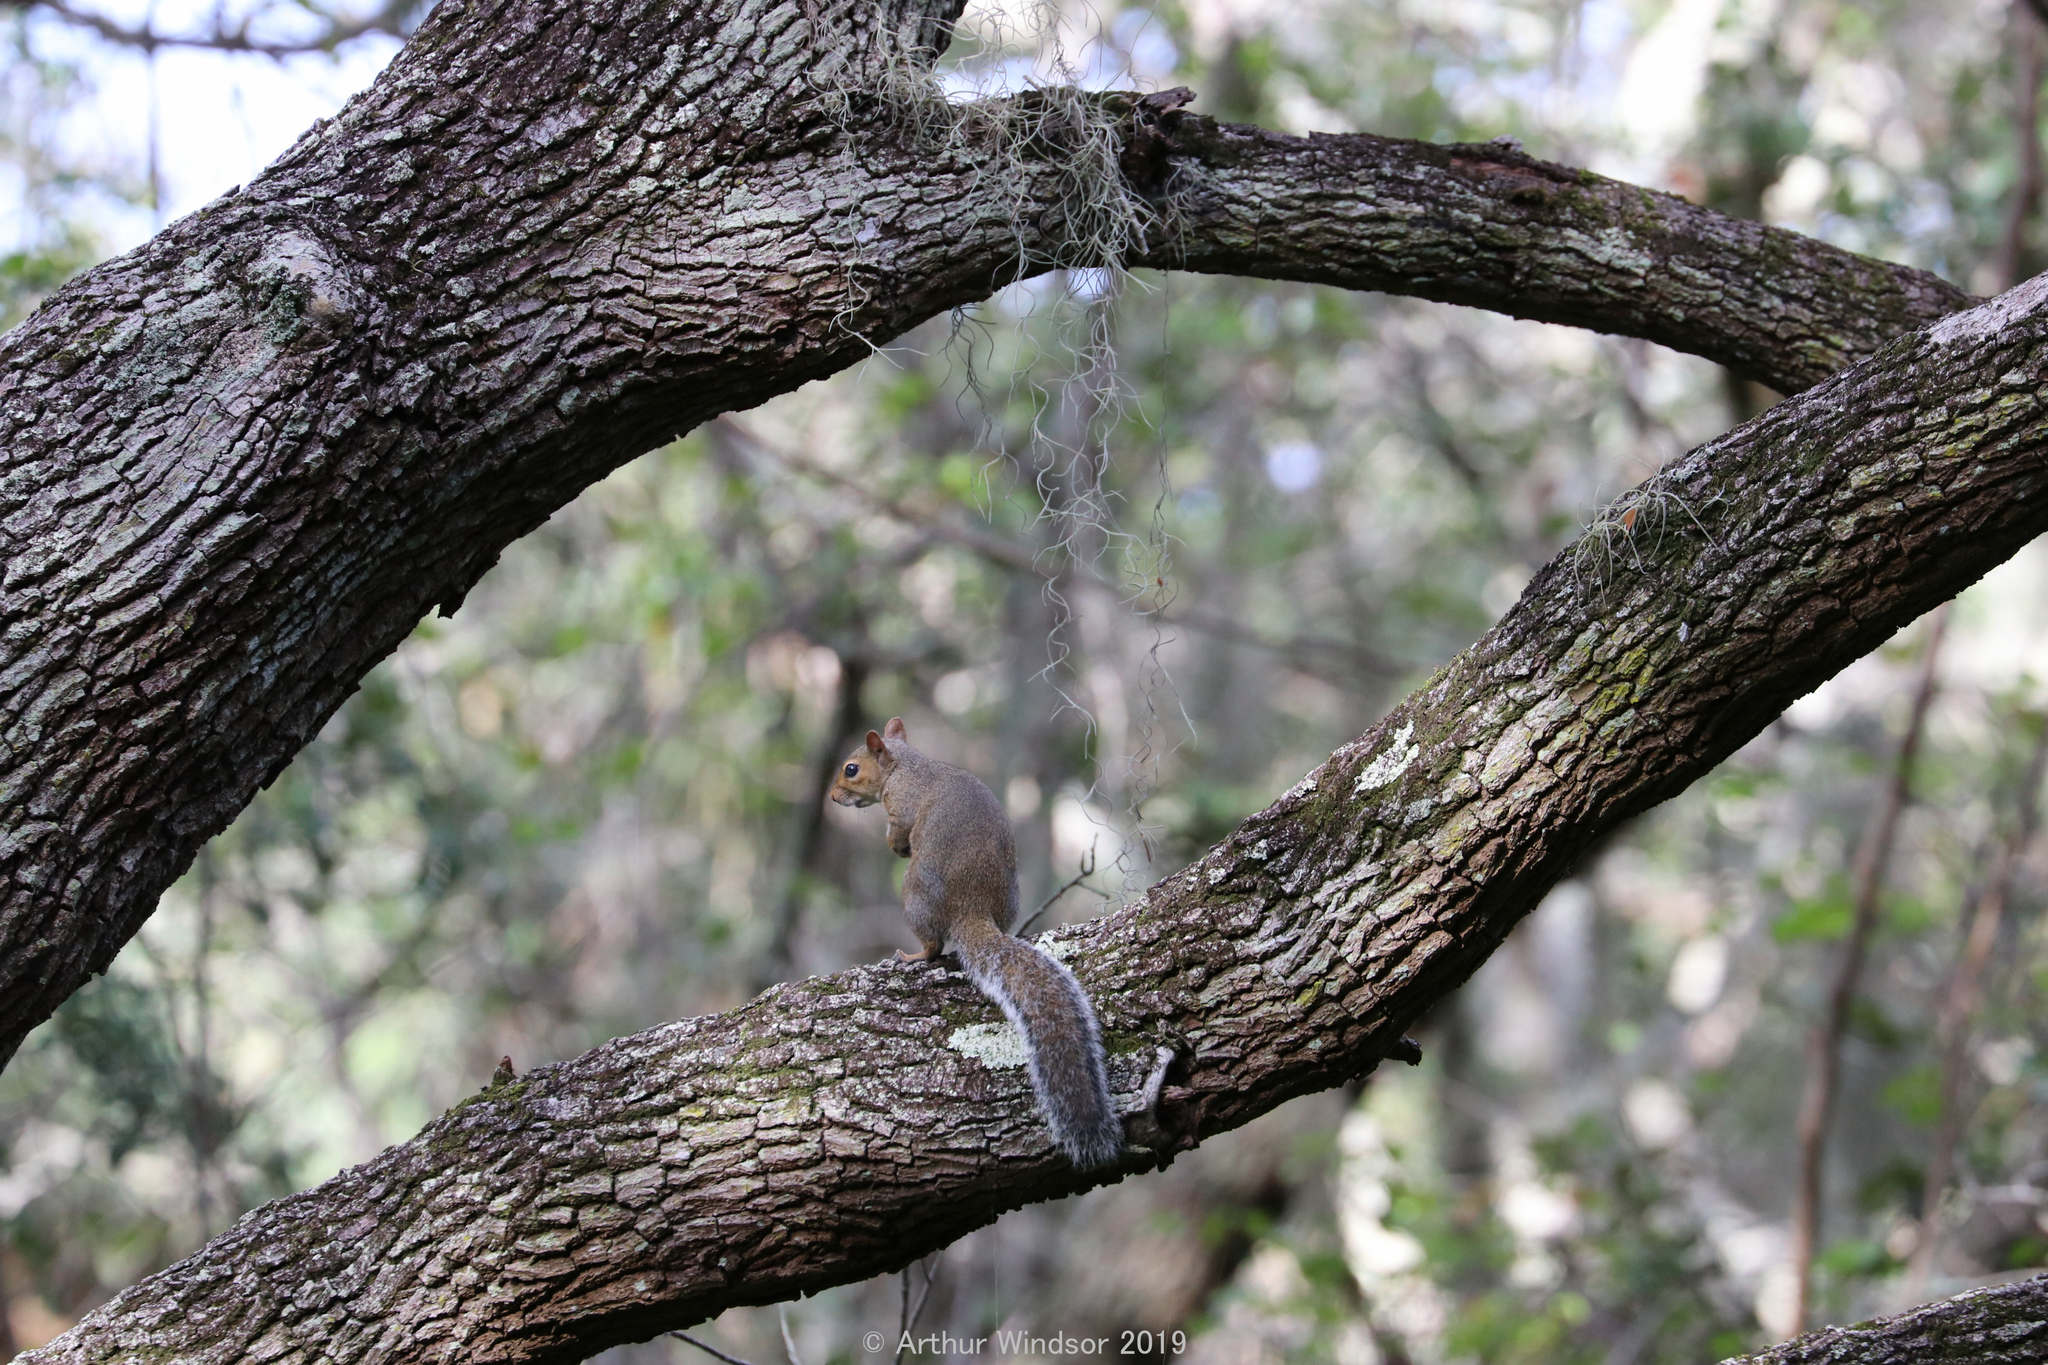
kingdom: Animalia
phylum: Chordata
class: Mammalia
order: Rodentia
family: Sciuridae
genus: Sciurus
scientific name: Sciurus carolinensis
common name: Eastern gray squirrel
